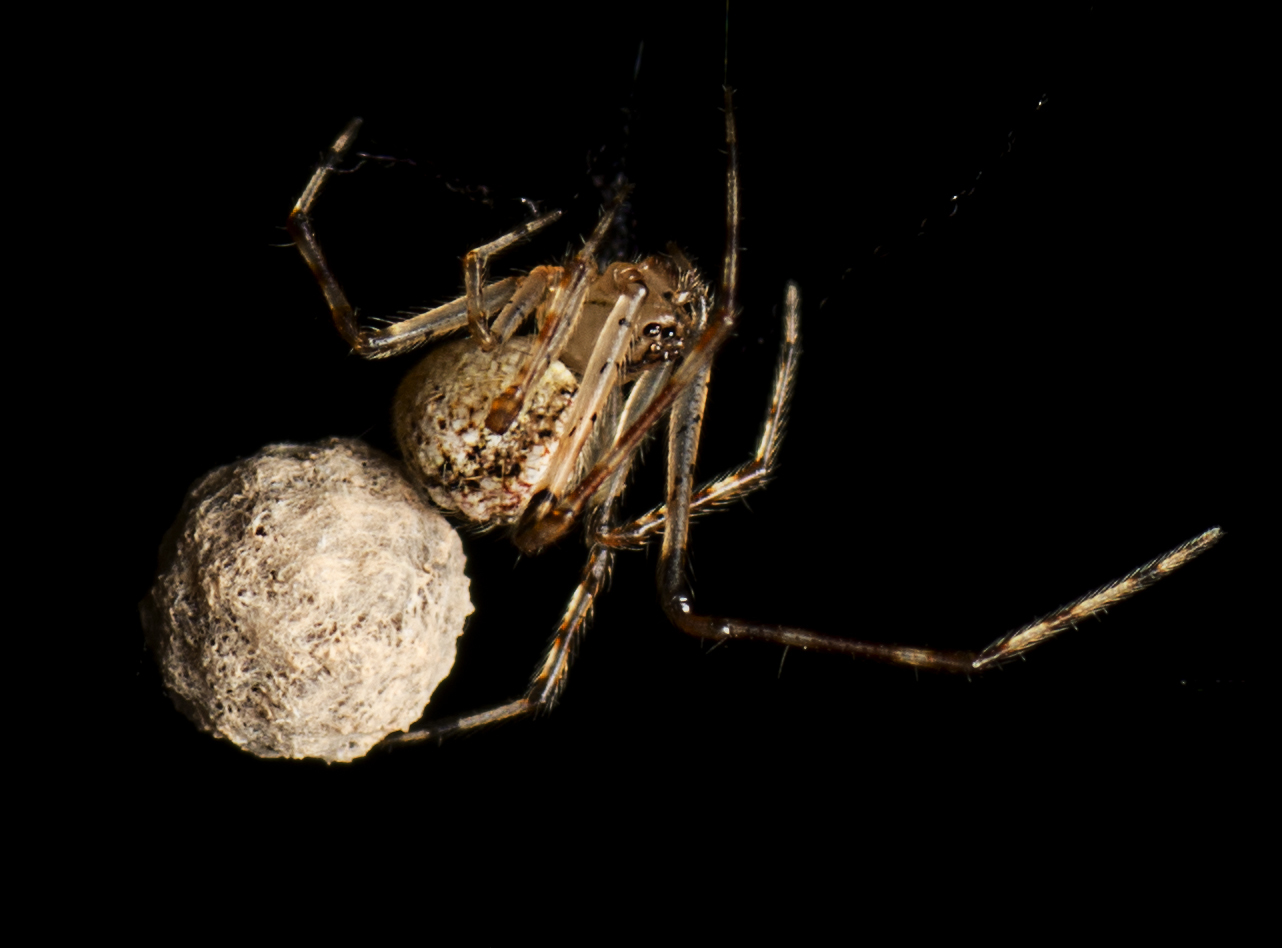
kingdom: Animalia
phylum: Arthropoda
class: Arachnida
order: Araneae
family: Theridiidae
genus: Cryptachaea
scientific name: Cryptachaea gigantipes
